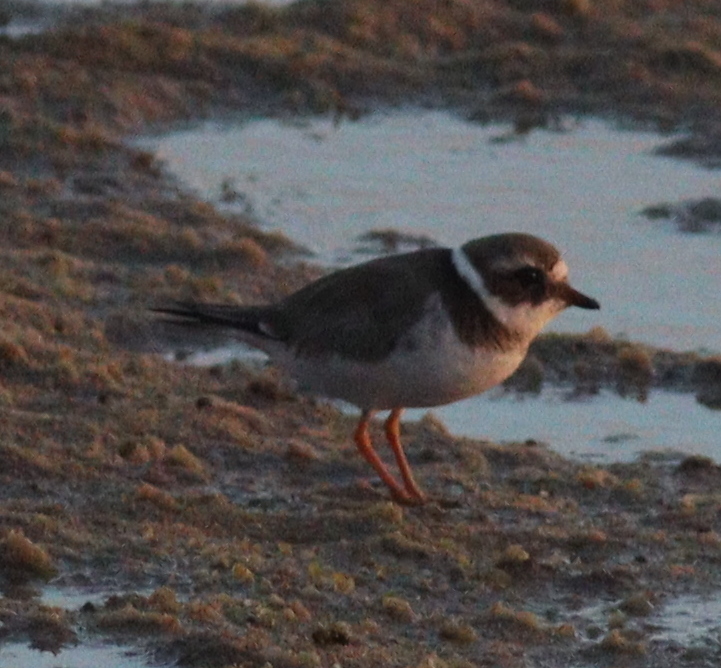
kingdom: Animalia
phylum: Chordata
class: Aves
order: Charadriiformes
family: Charadriidae
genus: Charadrius
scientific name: Charadrius hiaticula
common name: Common ringed plover
